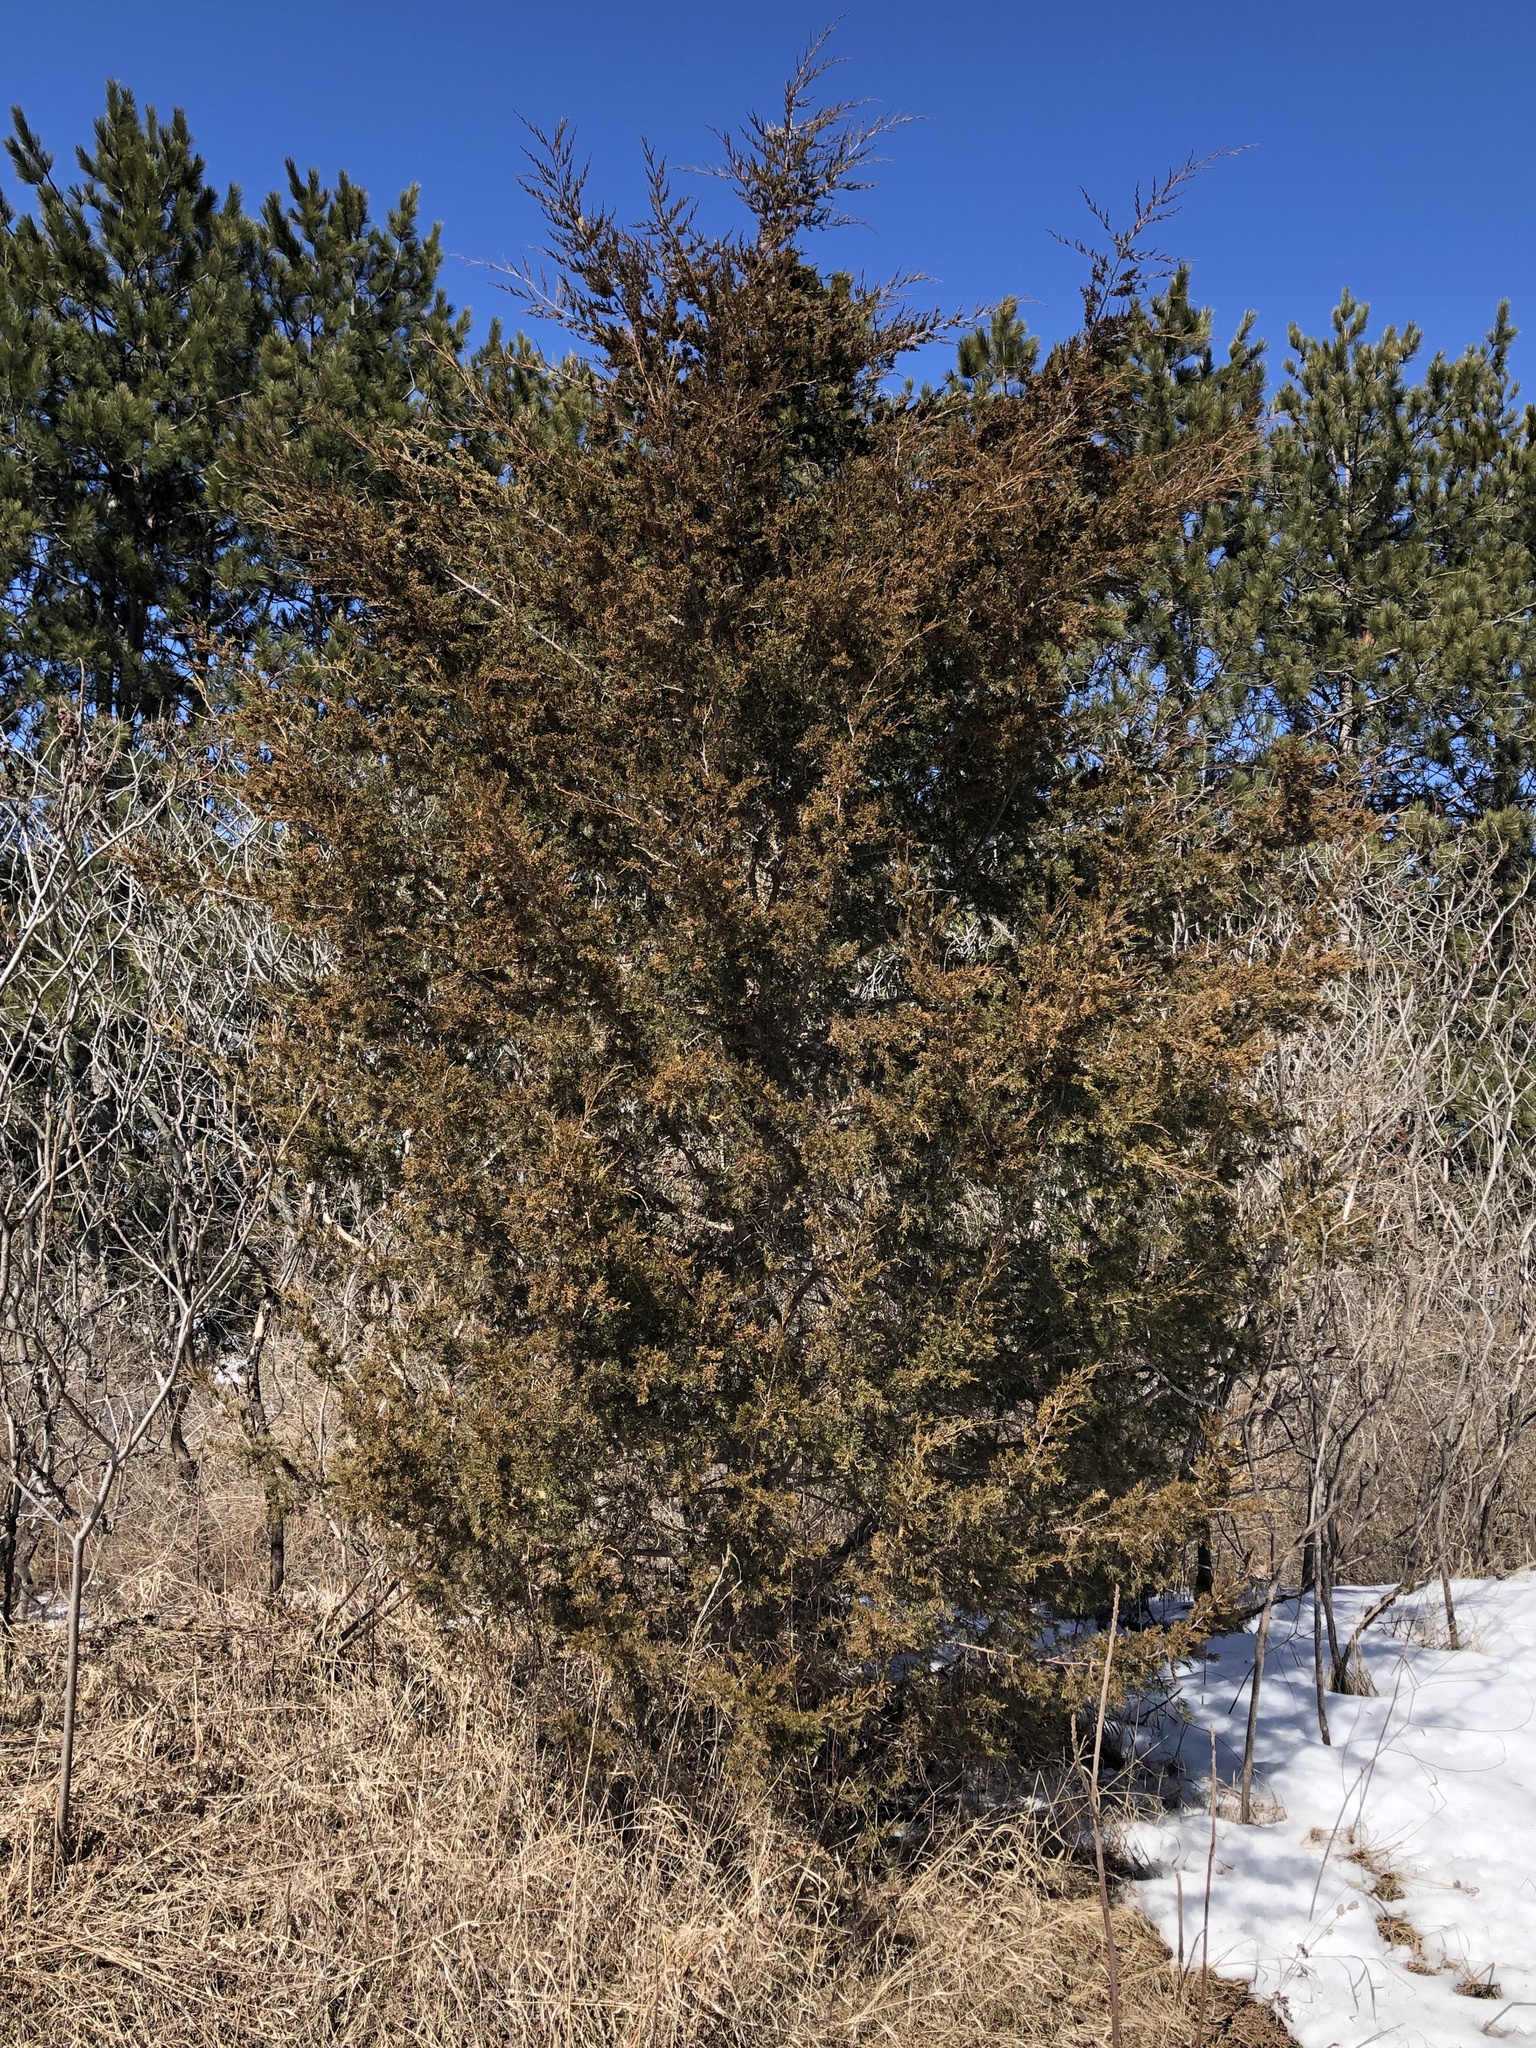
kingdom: Plantae
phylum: Tracheophyta
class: Pinopsida
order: Pinales
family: Cupressaceae
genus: Juniperus
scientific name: Juniperus virginiana
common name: Red juniper
